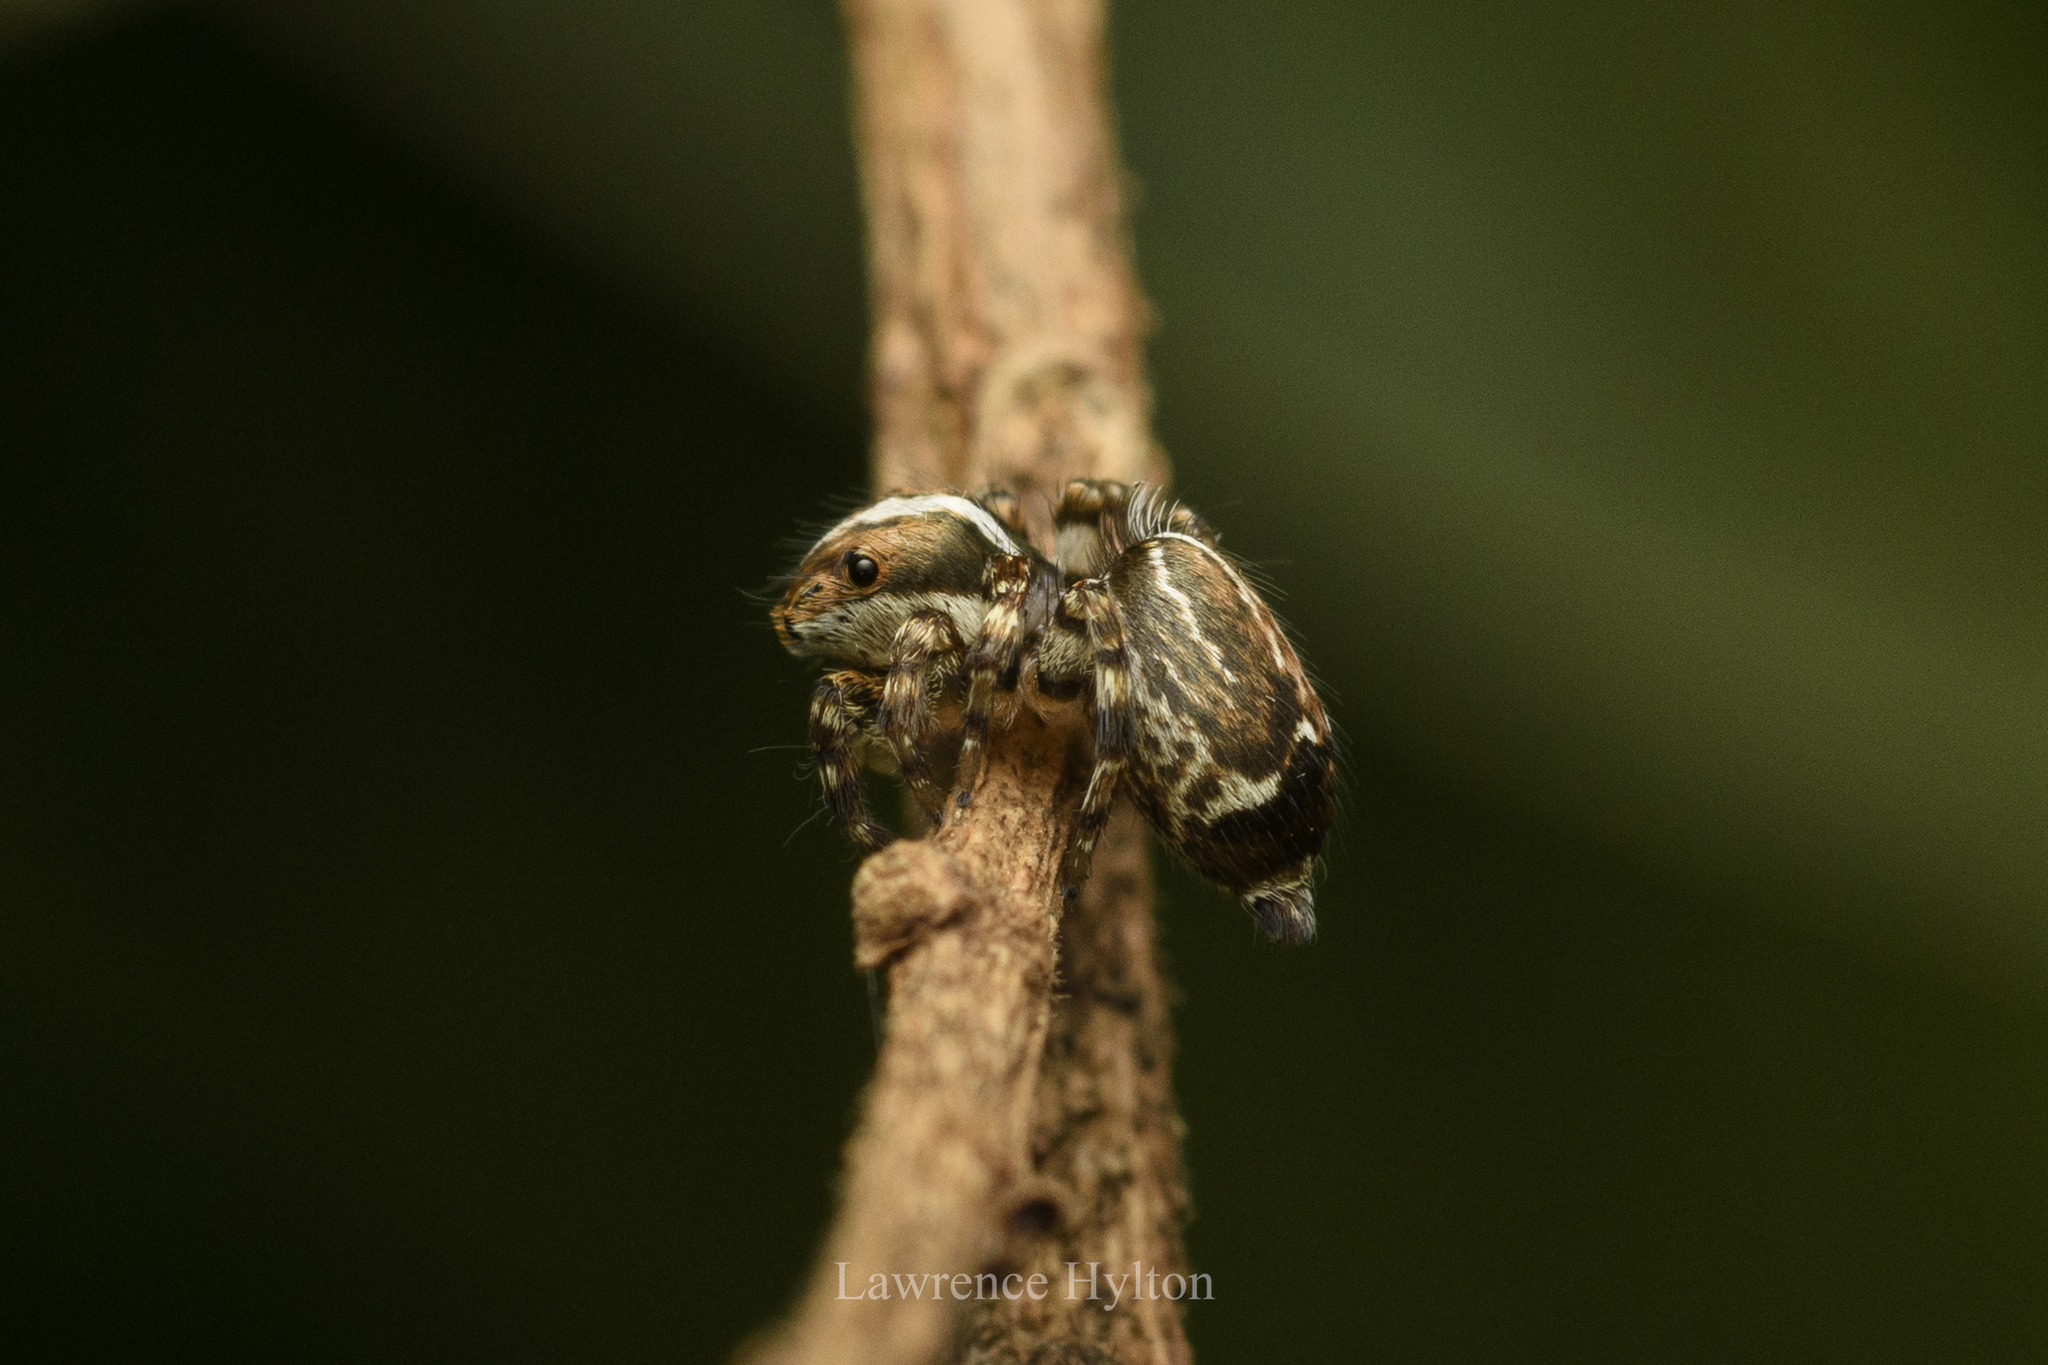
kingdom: Animalia
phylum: Arthropoda
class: Arachnida
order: Araneae
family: Salticidae
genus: Thyene
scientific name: Thyene orientalis
